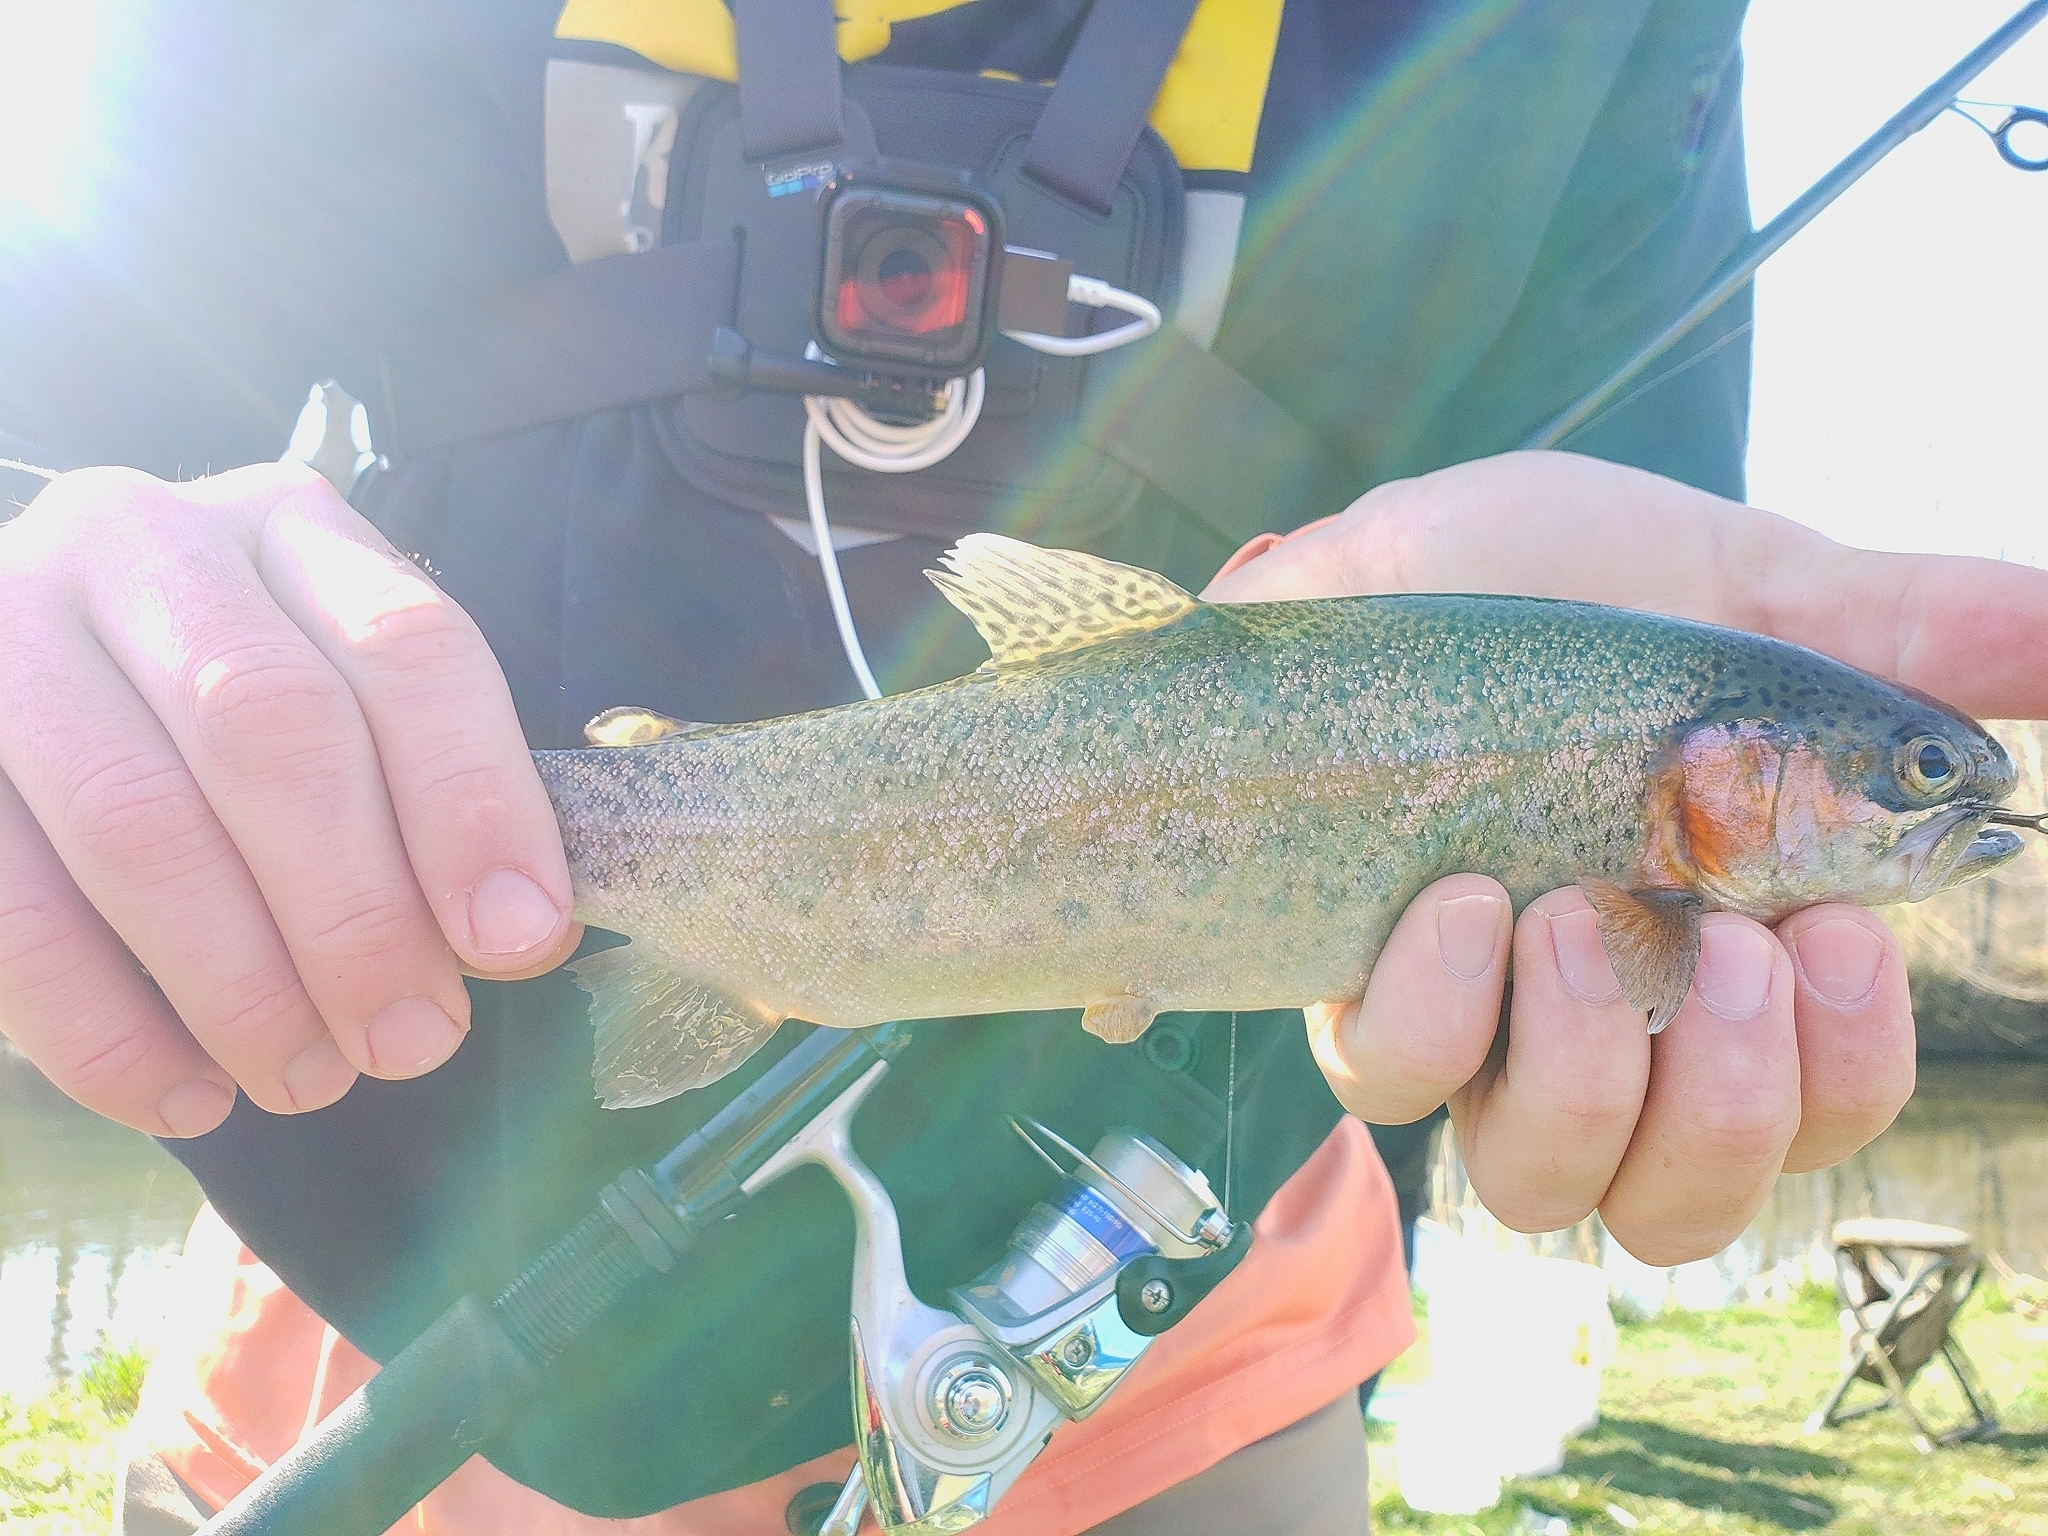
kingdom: Animalia
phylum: Chordata
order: Salmoniformes
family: Salmonidae
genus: Oncorhynchus
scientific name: Oncorhynchus mykiss
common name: Rainbow trout
